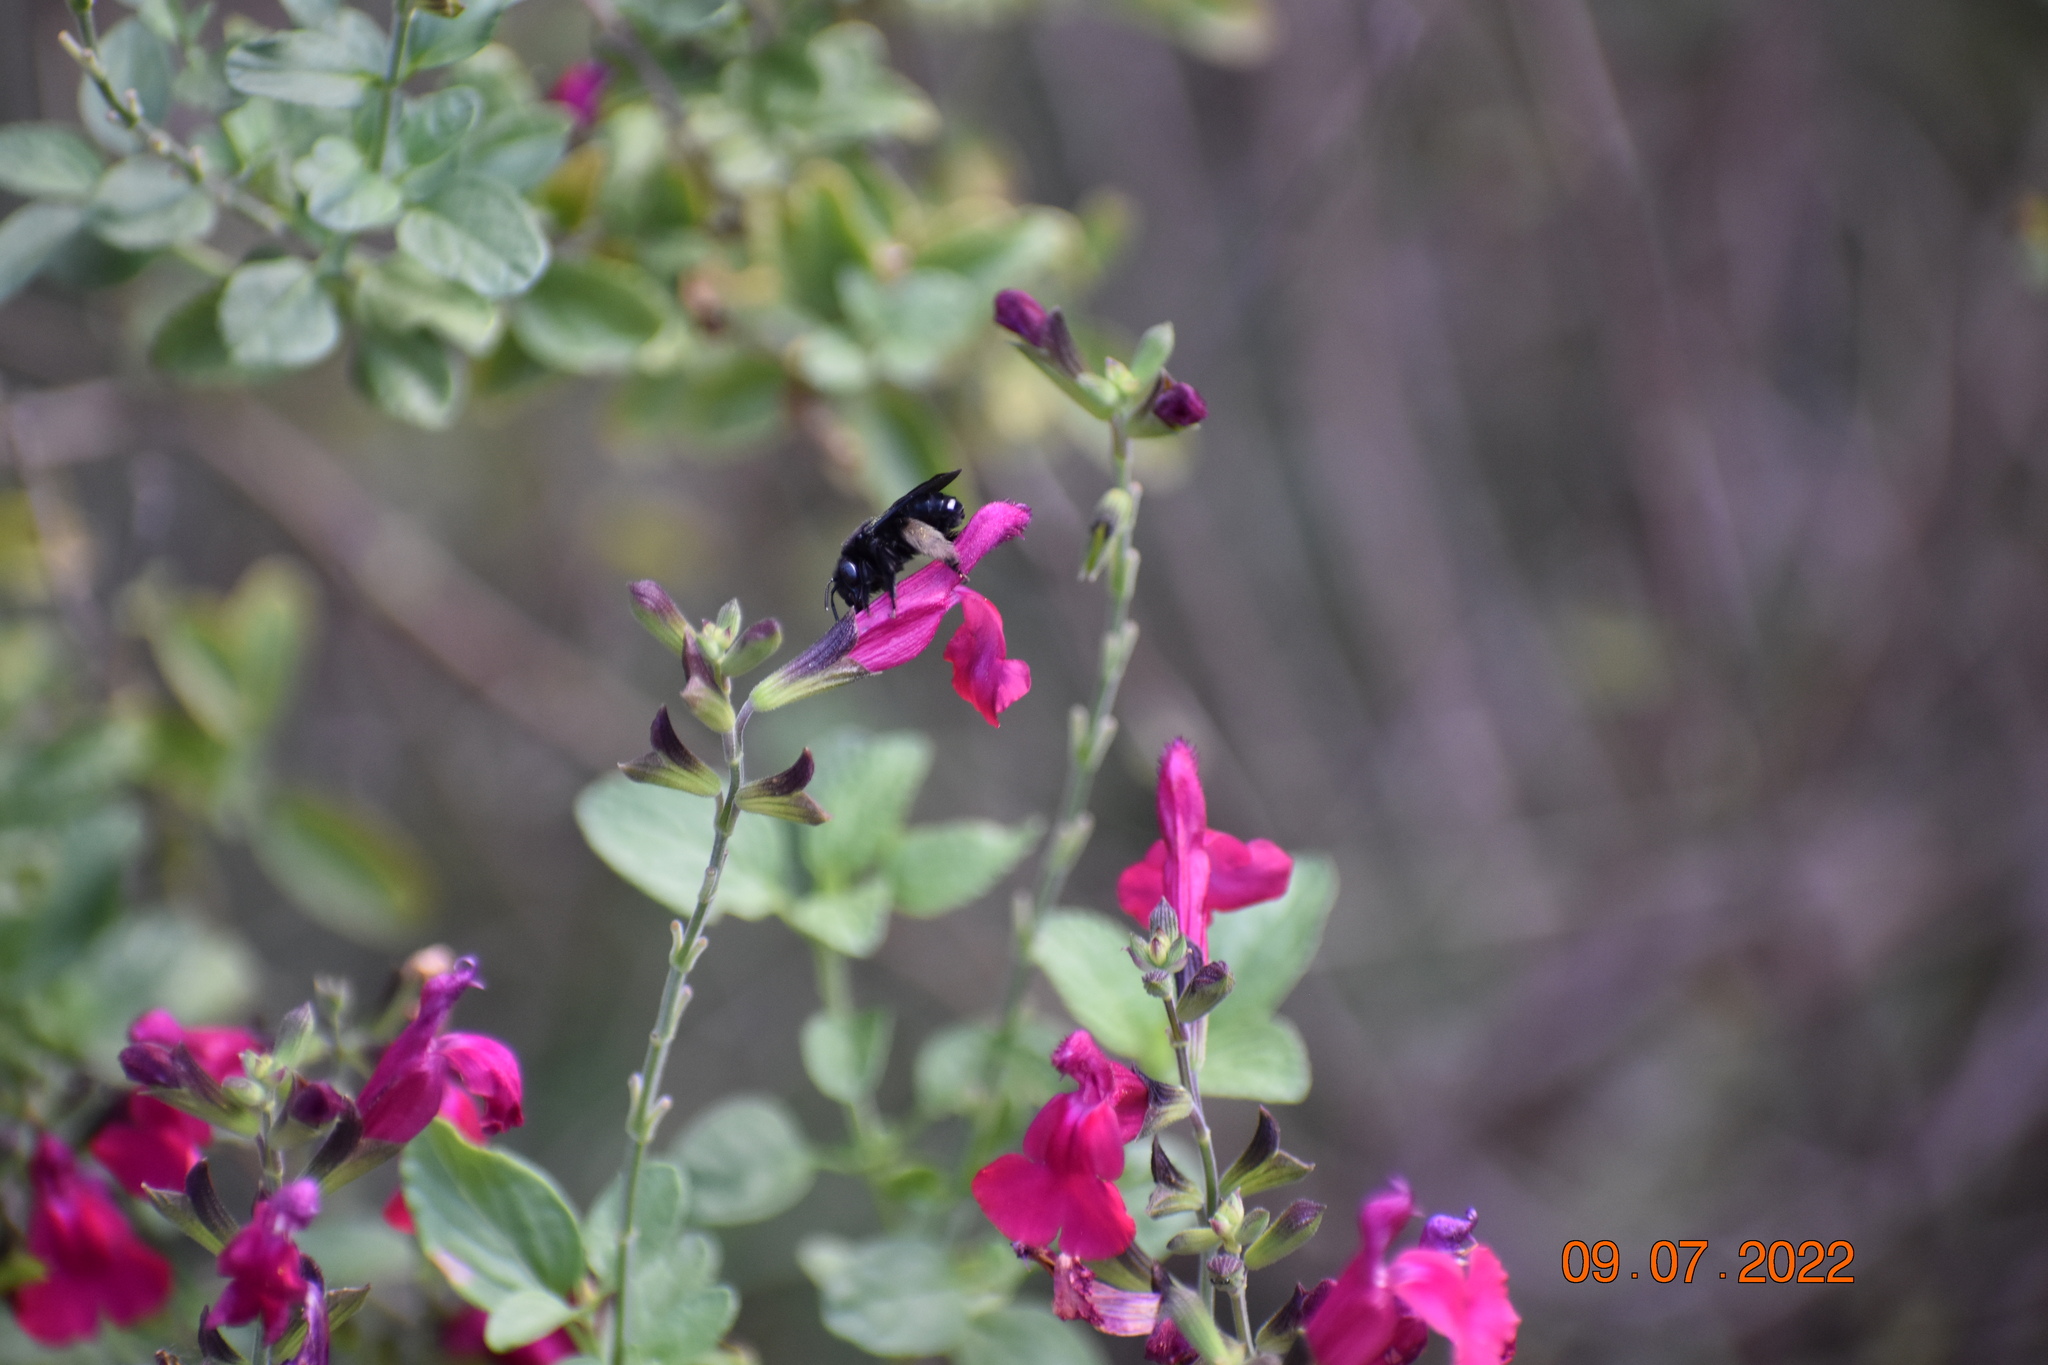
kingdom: Animalia
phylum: Arthropoda
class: Insecta
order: Hymenoptera
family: Apidae
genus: Melissodes
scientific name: Melissodes bimaculatus
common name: Two-spotted long-horned bee
